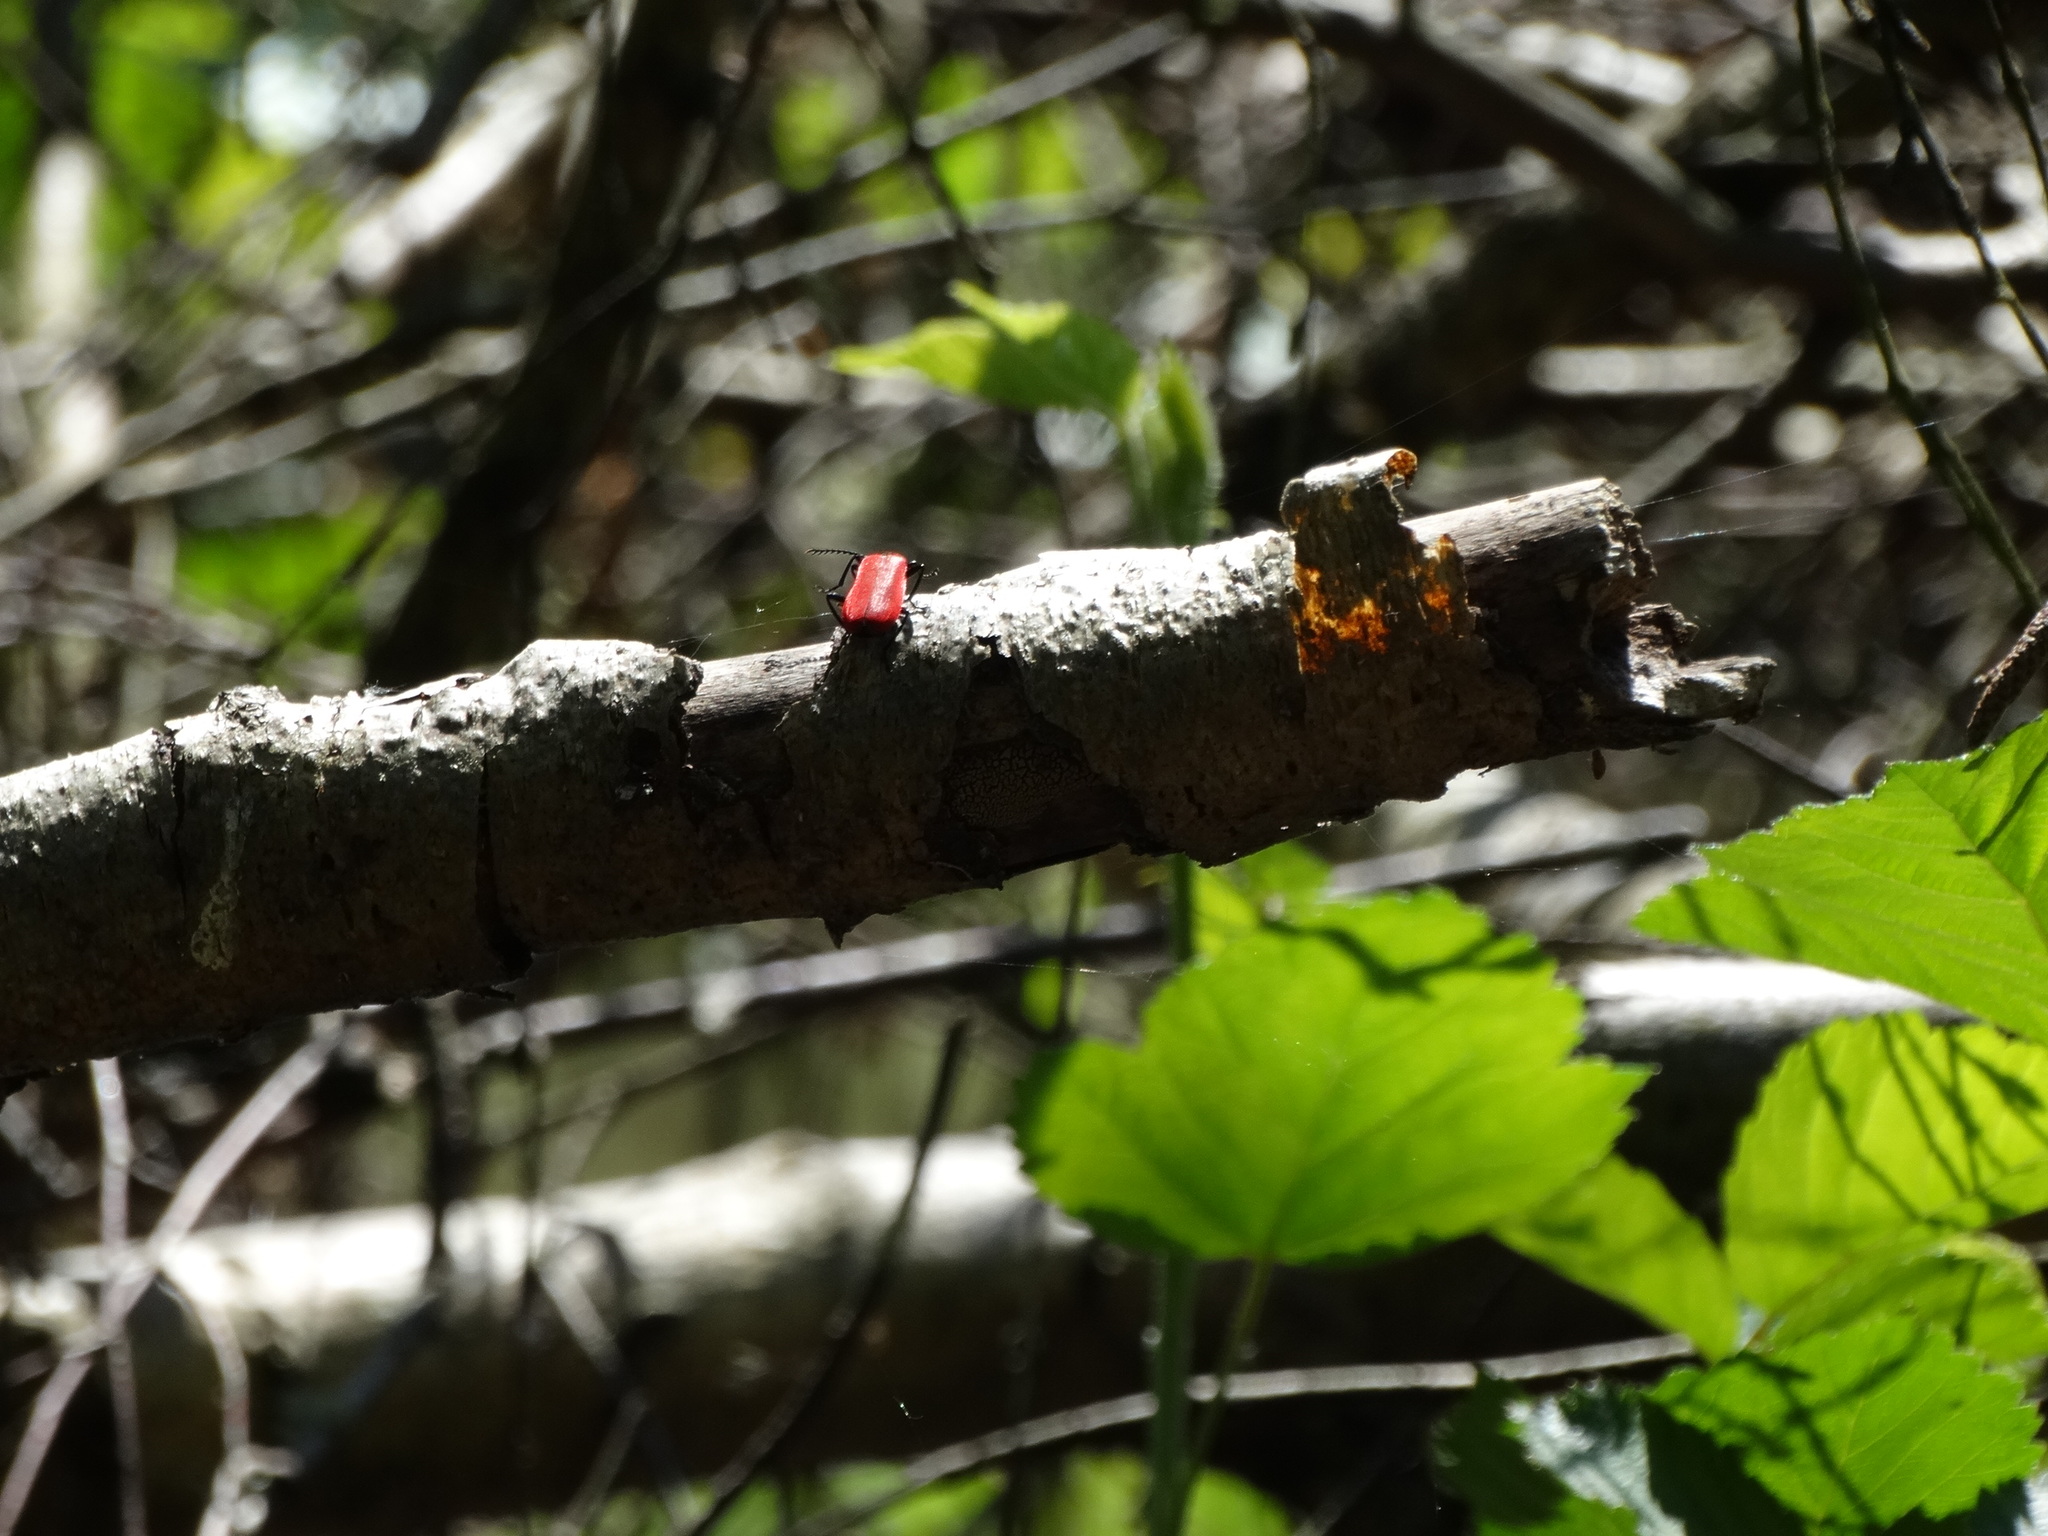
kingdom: Animalia
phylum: Arthropoda
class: Insecta
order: Coleoptera
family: Pyrochroidae
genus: Pyrochroa
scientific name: Pyrochroa coccinea
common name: Black-headed cardinal beetle
